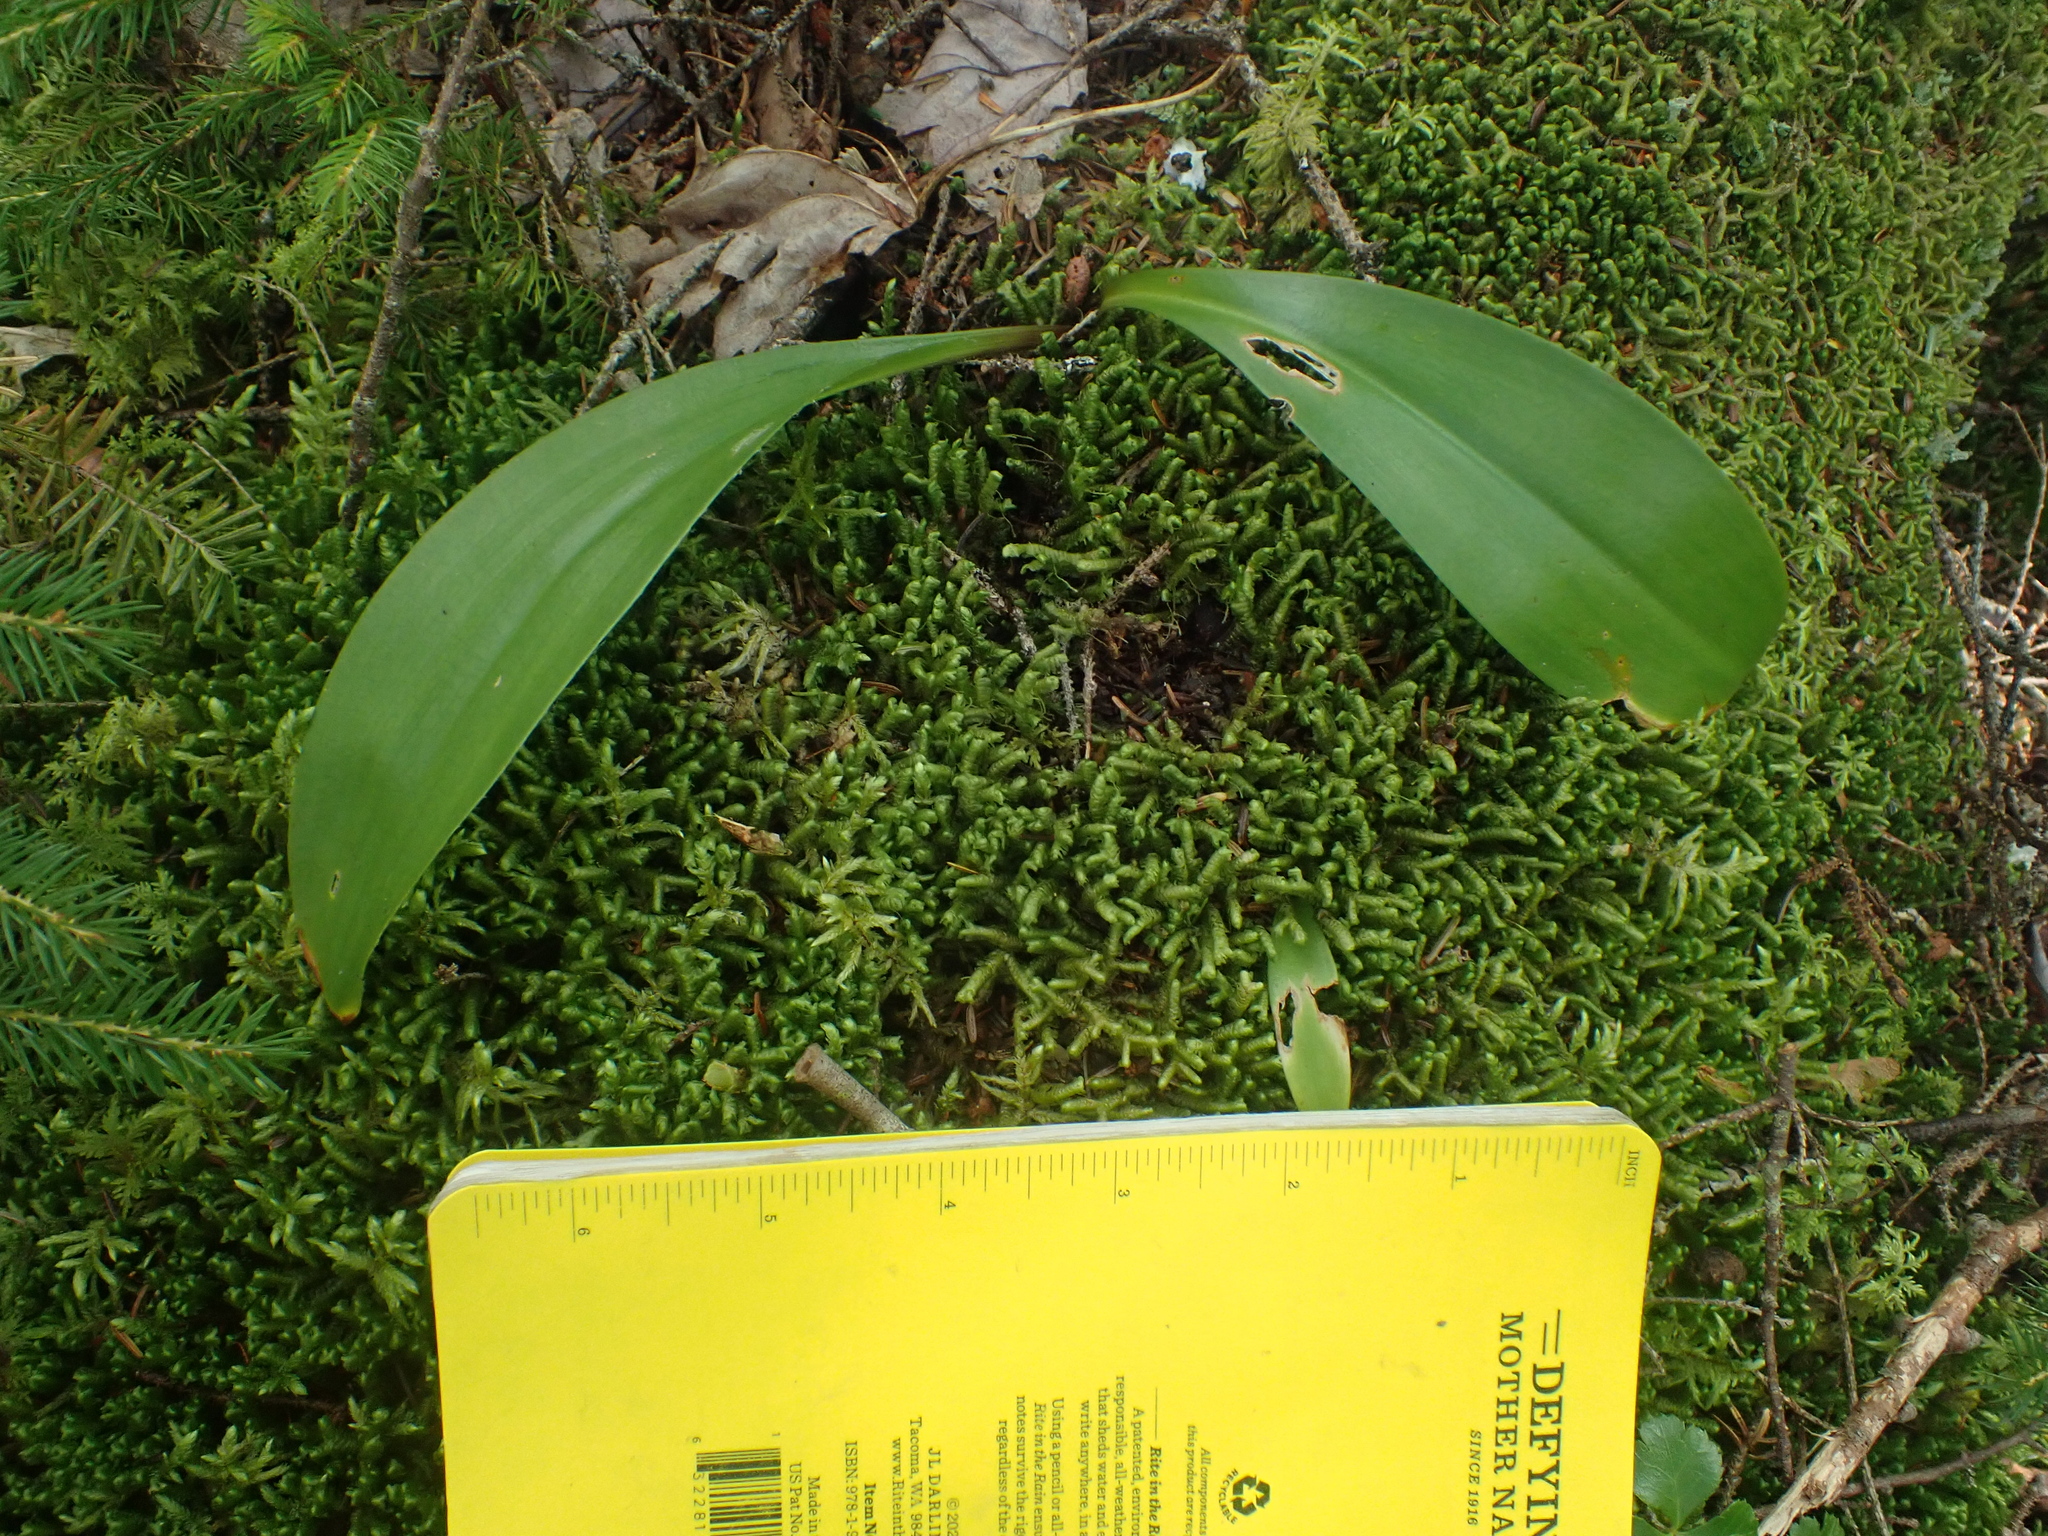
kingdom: Plantae
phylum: Tracheophyta
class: Liliopsida
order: Liliales
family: Liliaceae
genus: Clintonia
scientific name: Clintonia borealis
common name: Yellow clintonia
